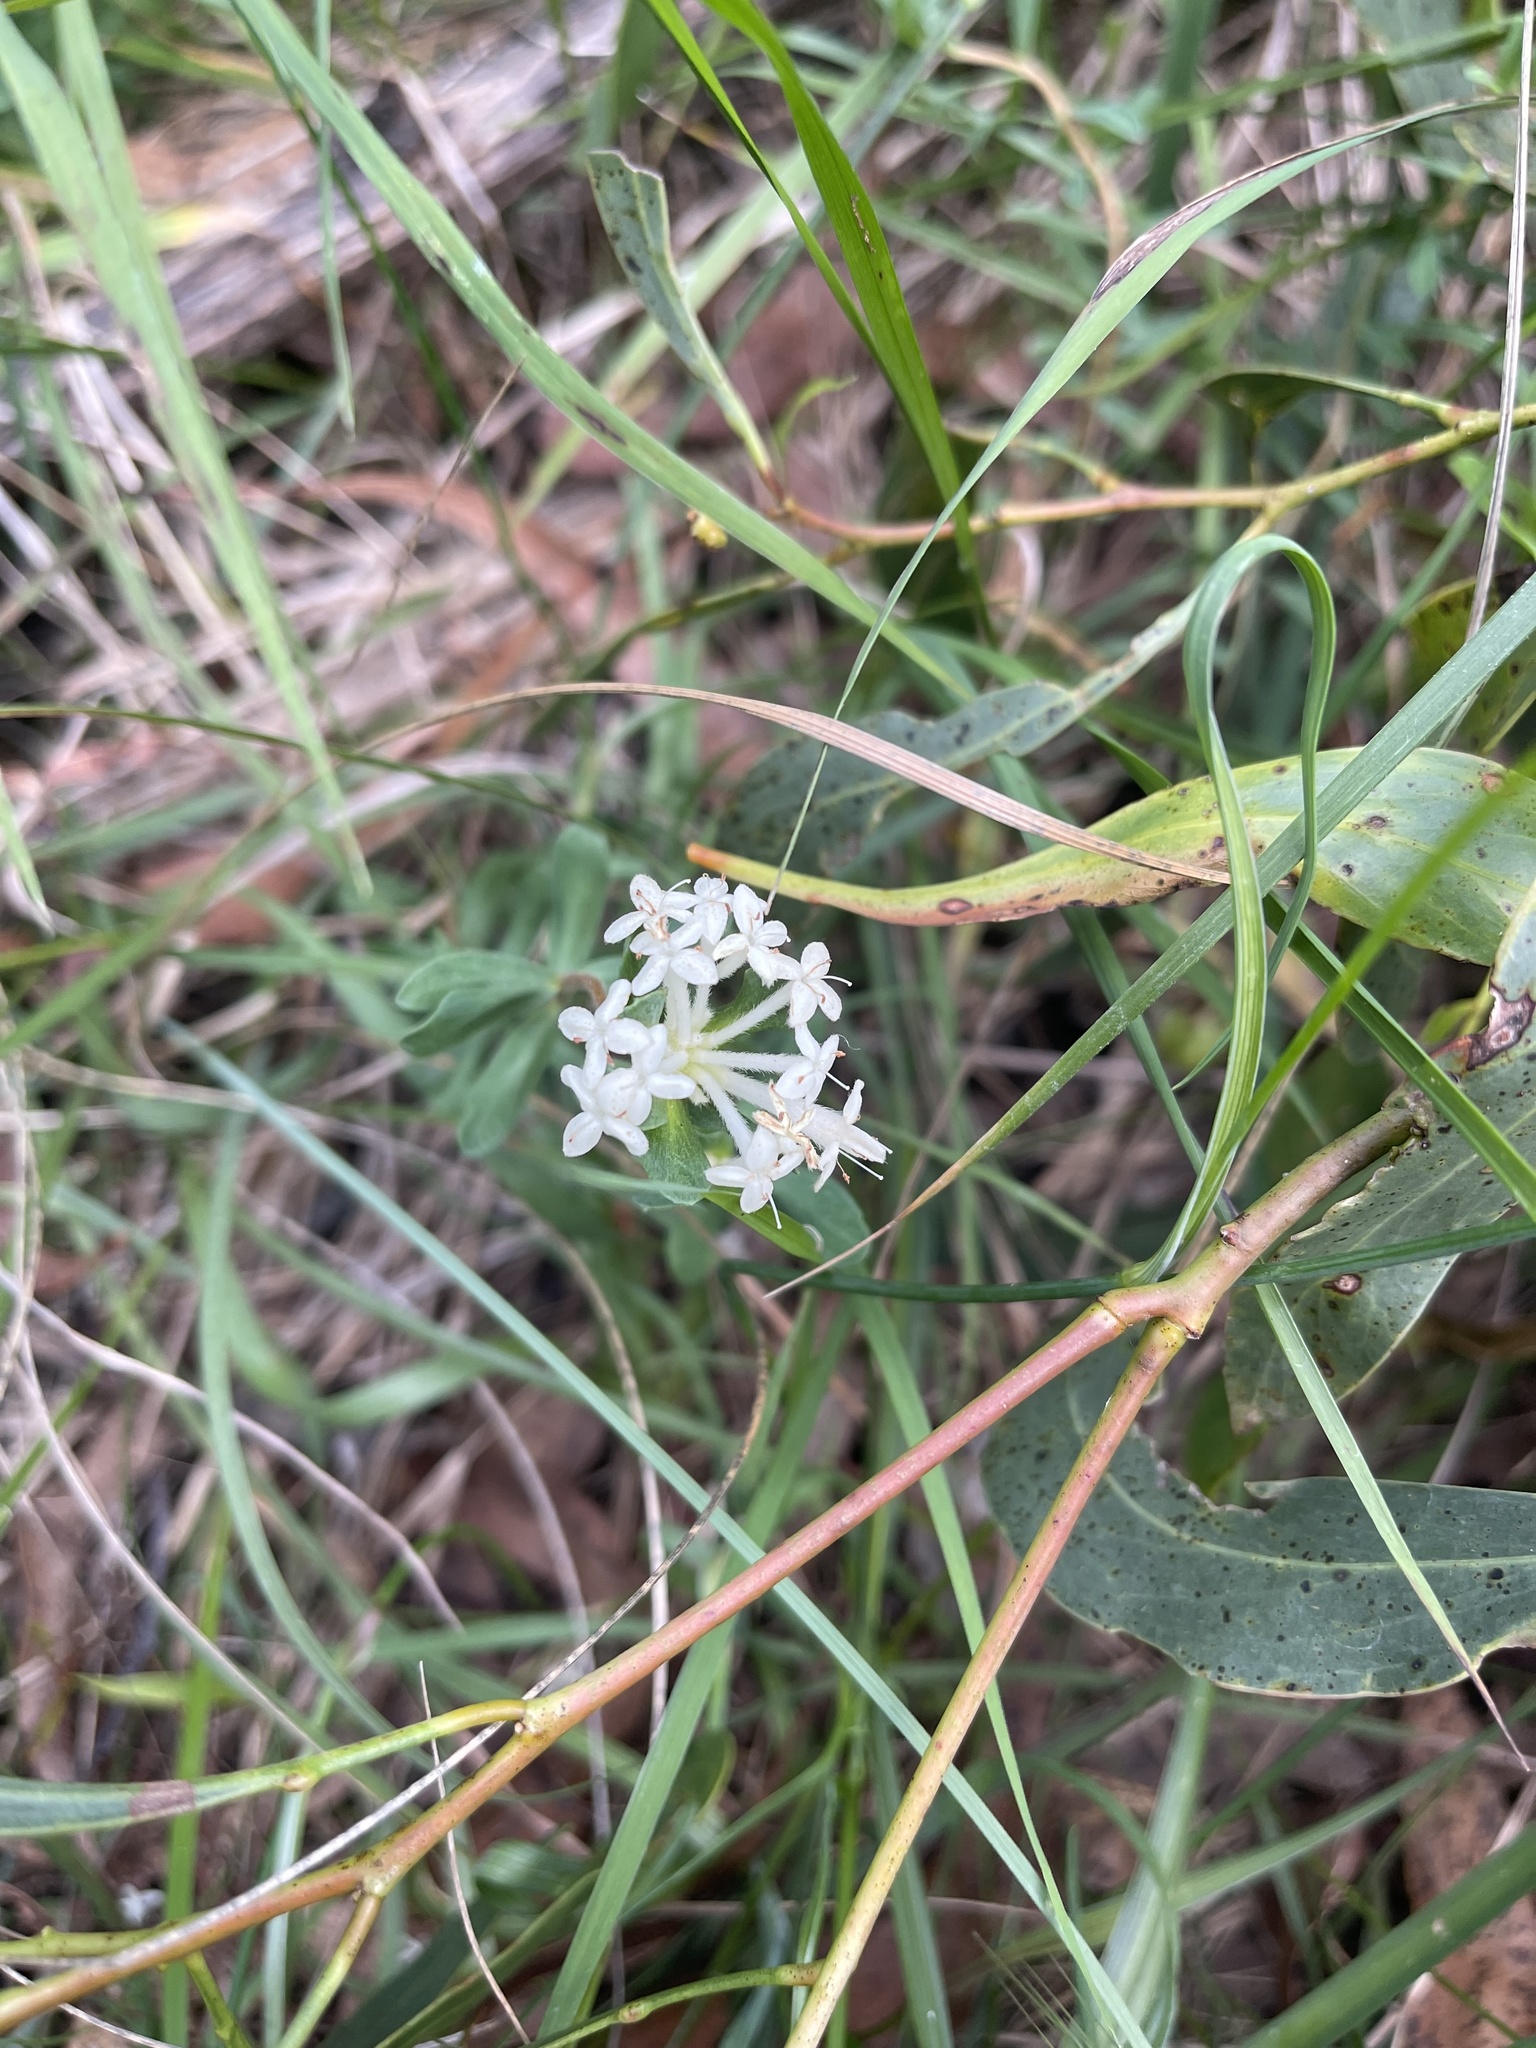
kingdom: Plantae
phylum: Tracheophyta
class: Magnoliopsida
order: Malvales
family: Thymelaeaceae
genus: Pimelea
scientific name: Pimelea humilis
